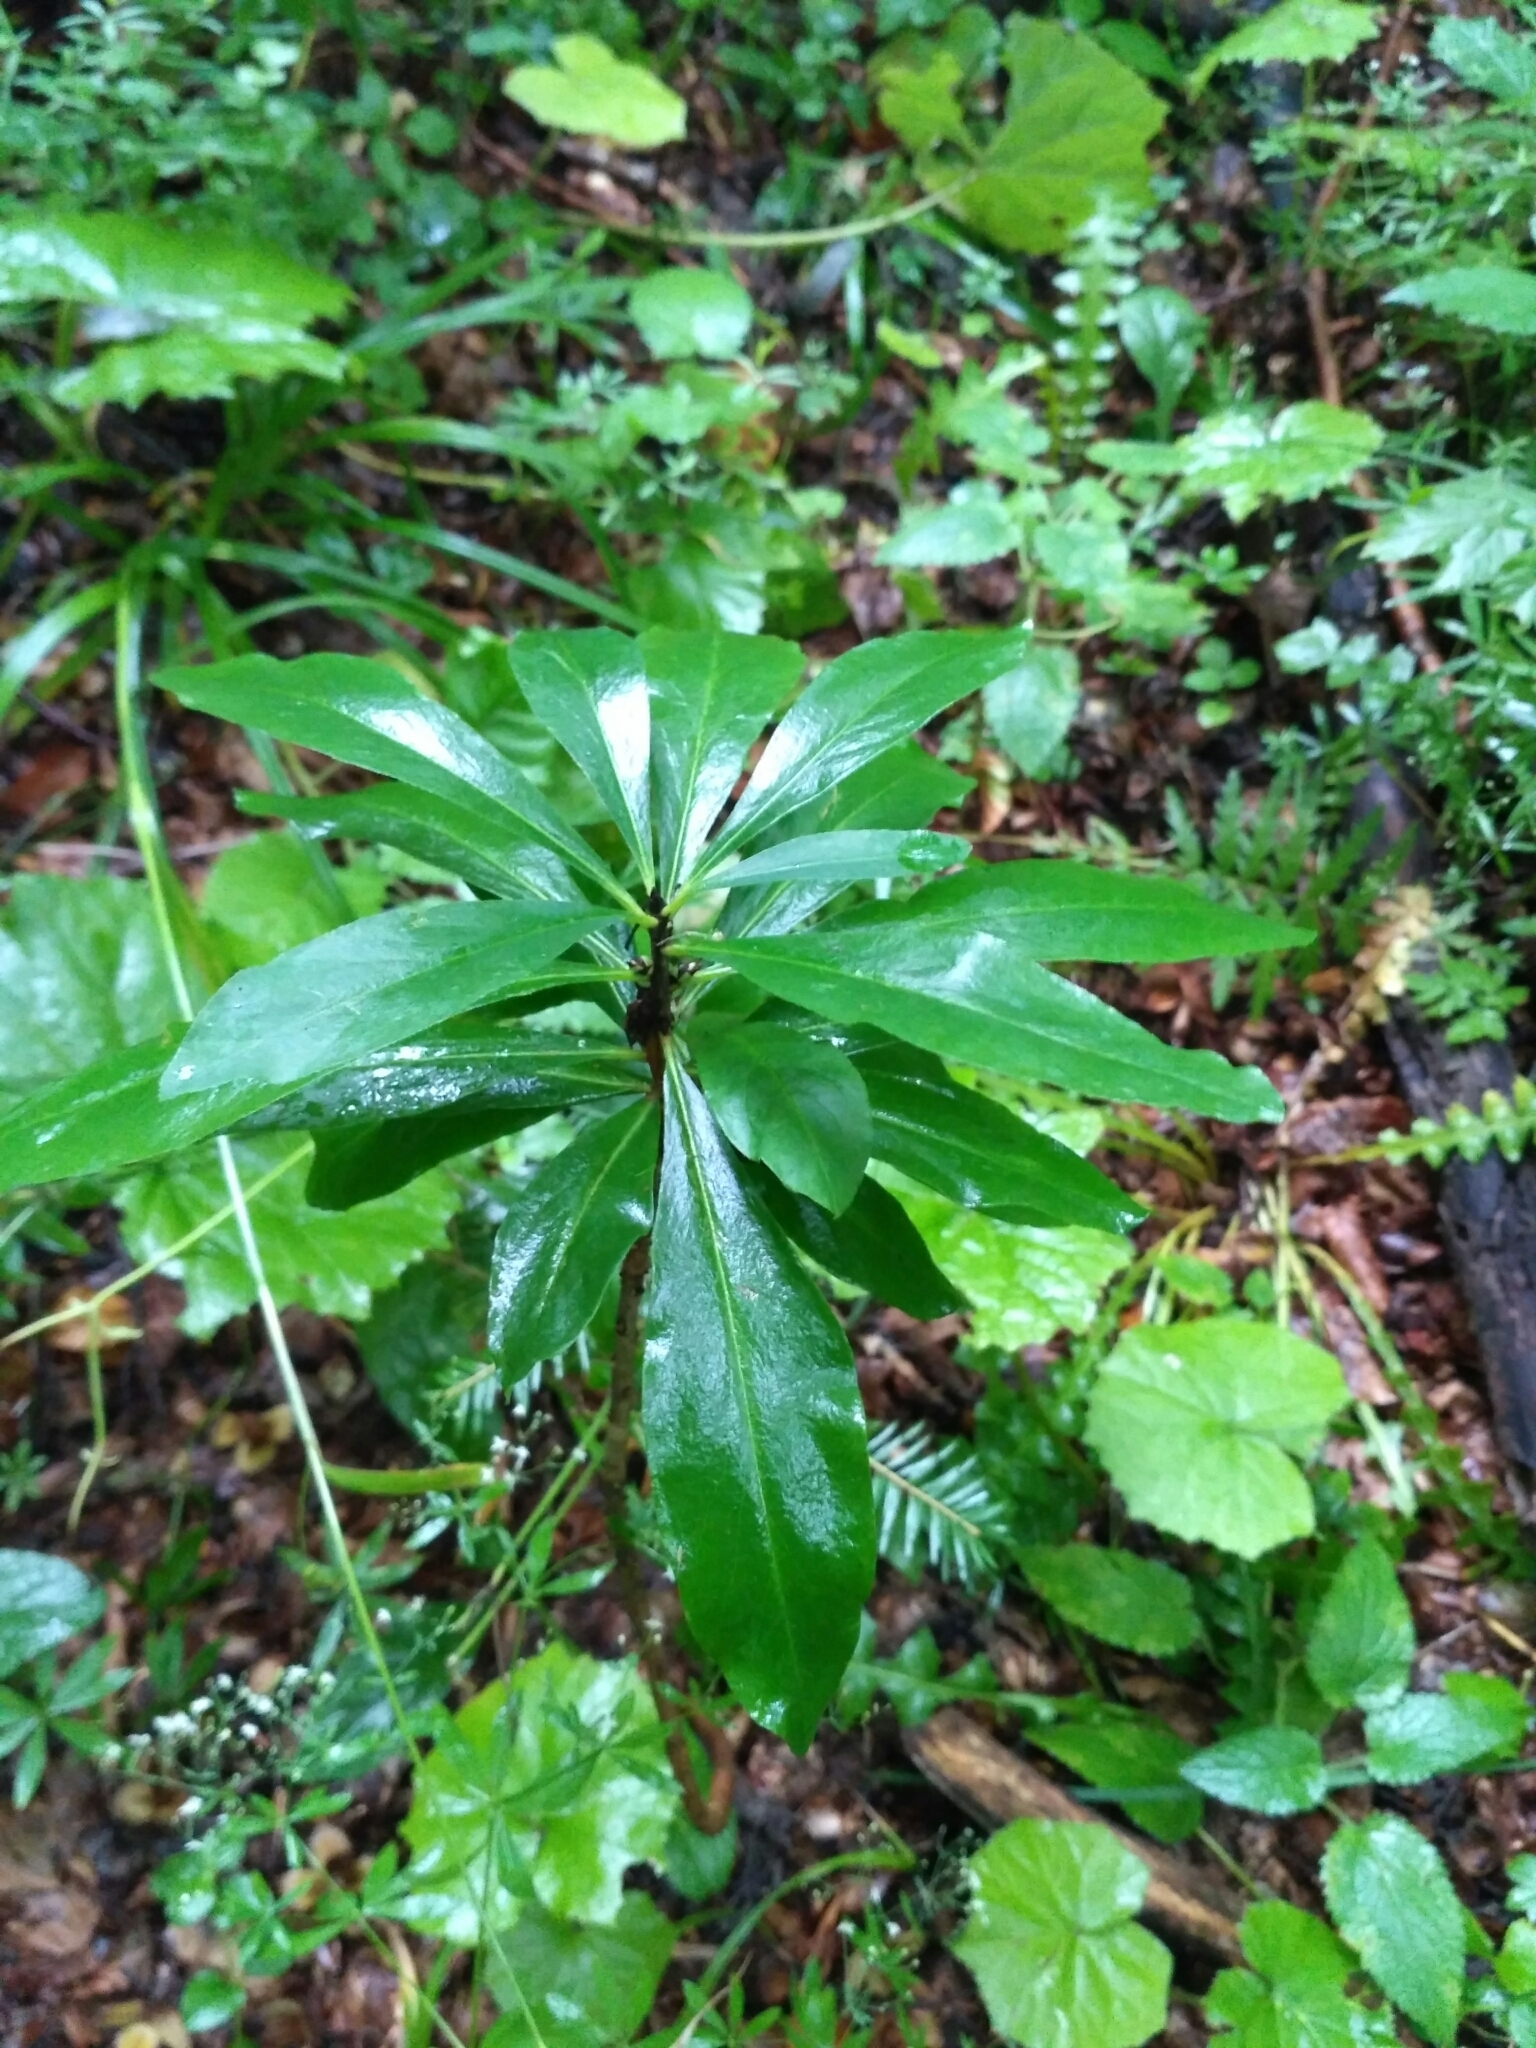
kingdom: Plantae
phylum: Tracheophyta
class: Magnoliopsida
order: Malvales
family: Thymelaeaceae
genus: Daphne
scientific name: Daphne mezereum
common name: Mezereon
